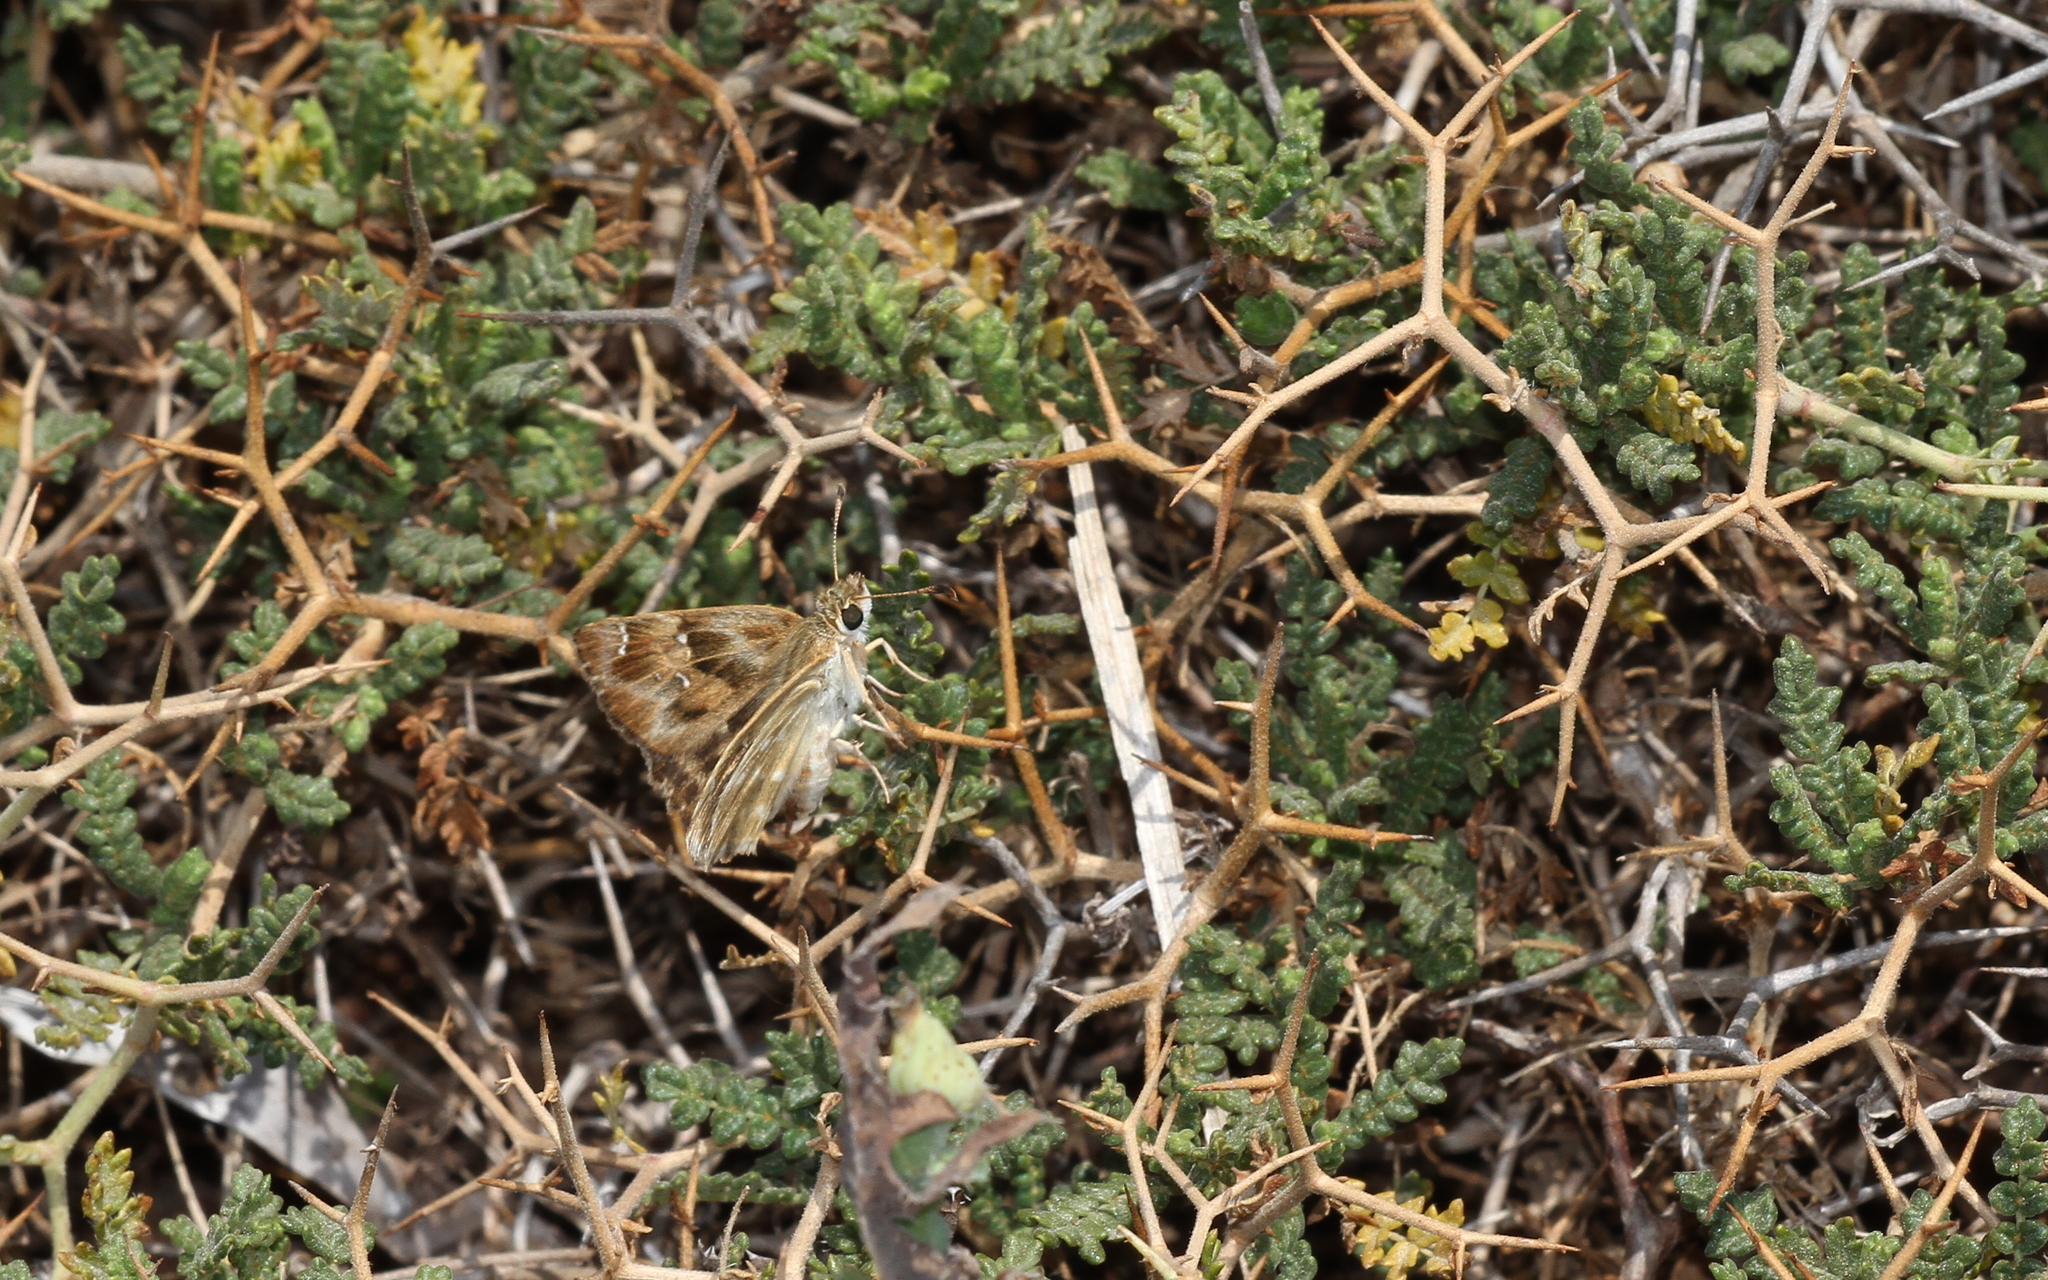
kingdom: Animalia
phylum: Arthropoda
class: Insecta
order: Lepidoptera
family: Hesperiidae
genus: Carcharodus
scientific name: Carcharodus alceae
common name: Mallow skipper
